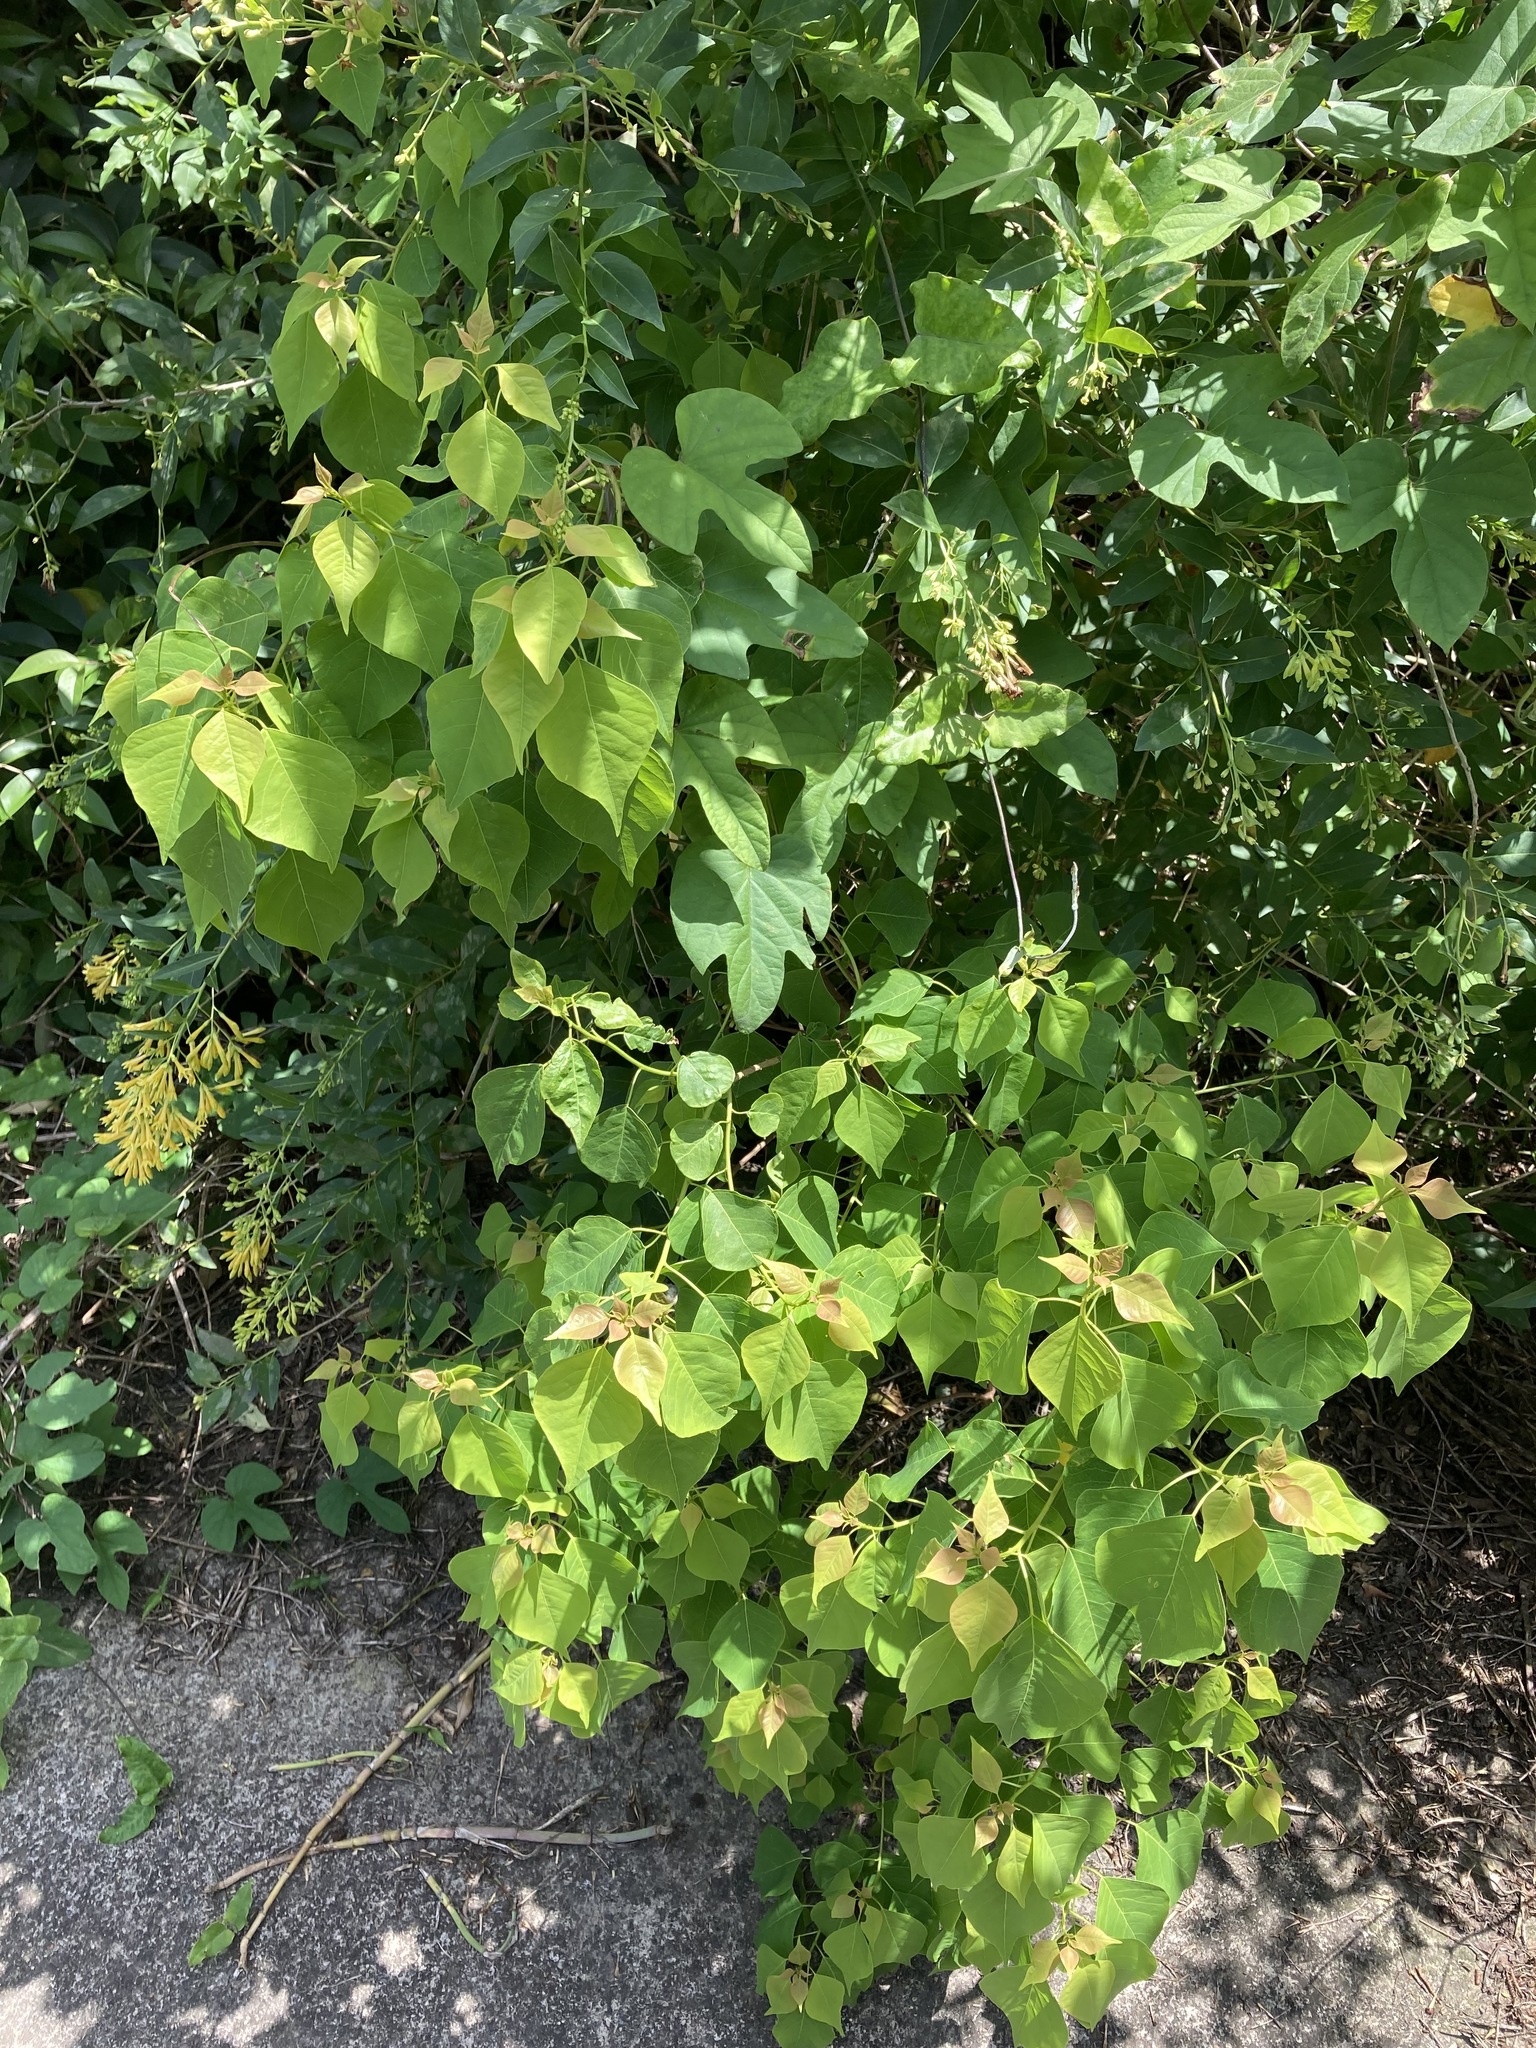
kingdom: Plantae
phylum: Tracheophyta
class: Magnoliopsida
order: Malpighiales
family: Euphorbiaceae
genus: Triadica
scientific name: Triadica sebifera
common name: Chinese tallow
